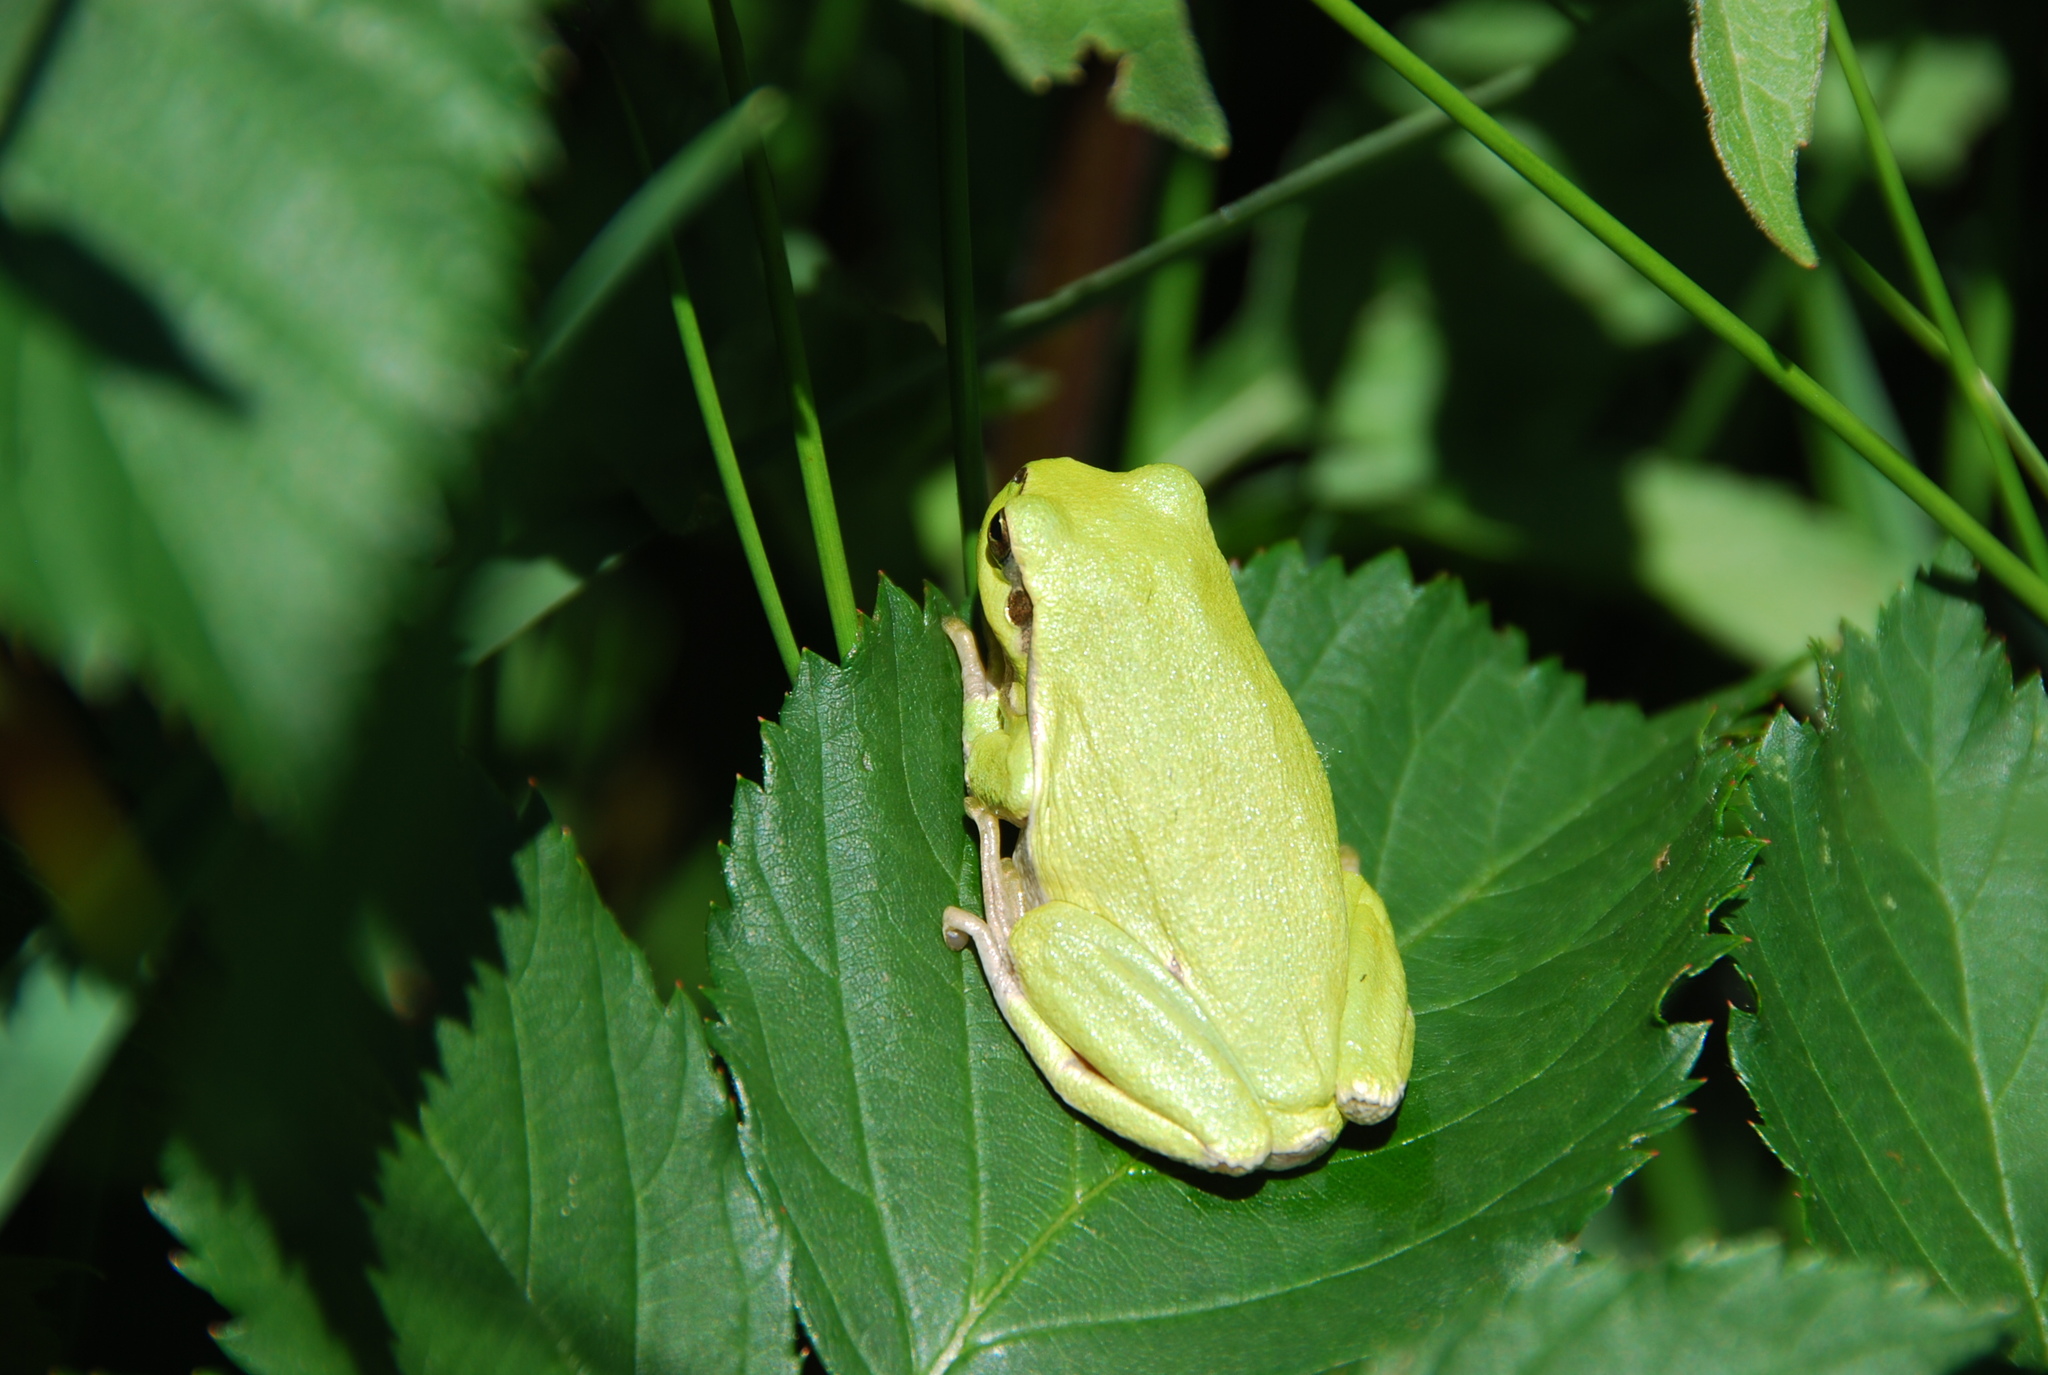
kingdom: Animalia
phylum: Chordata
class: Amphibia
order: Anura
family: Hylidae
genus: Hyla
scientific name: Hyla arborea
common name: Common tree frog
